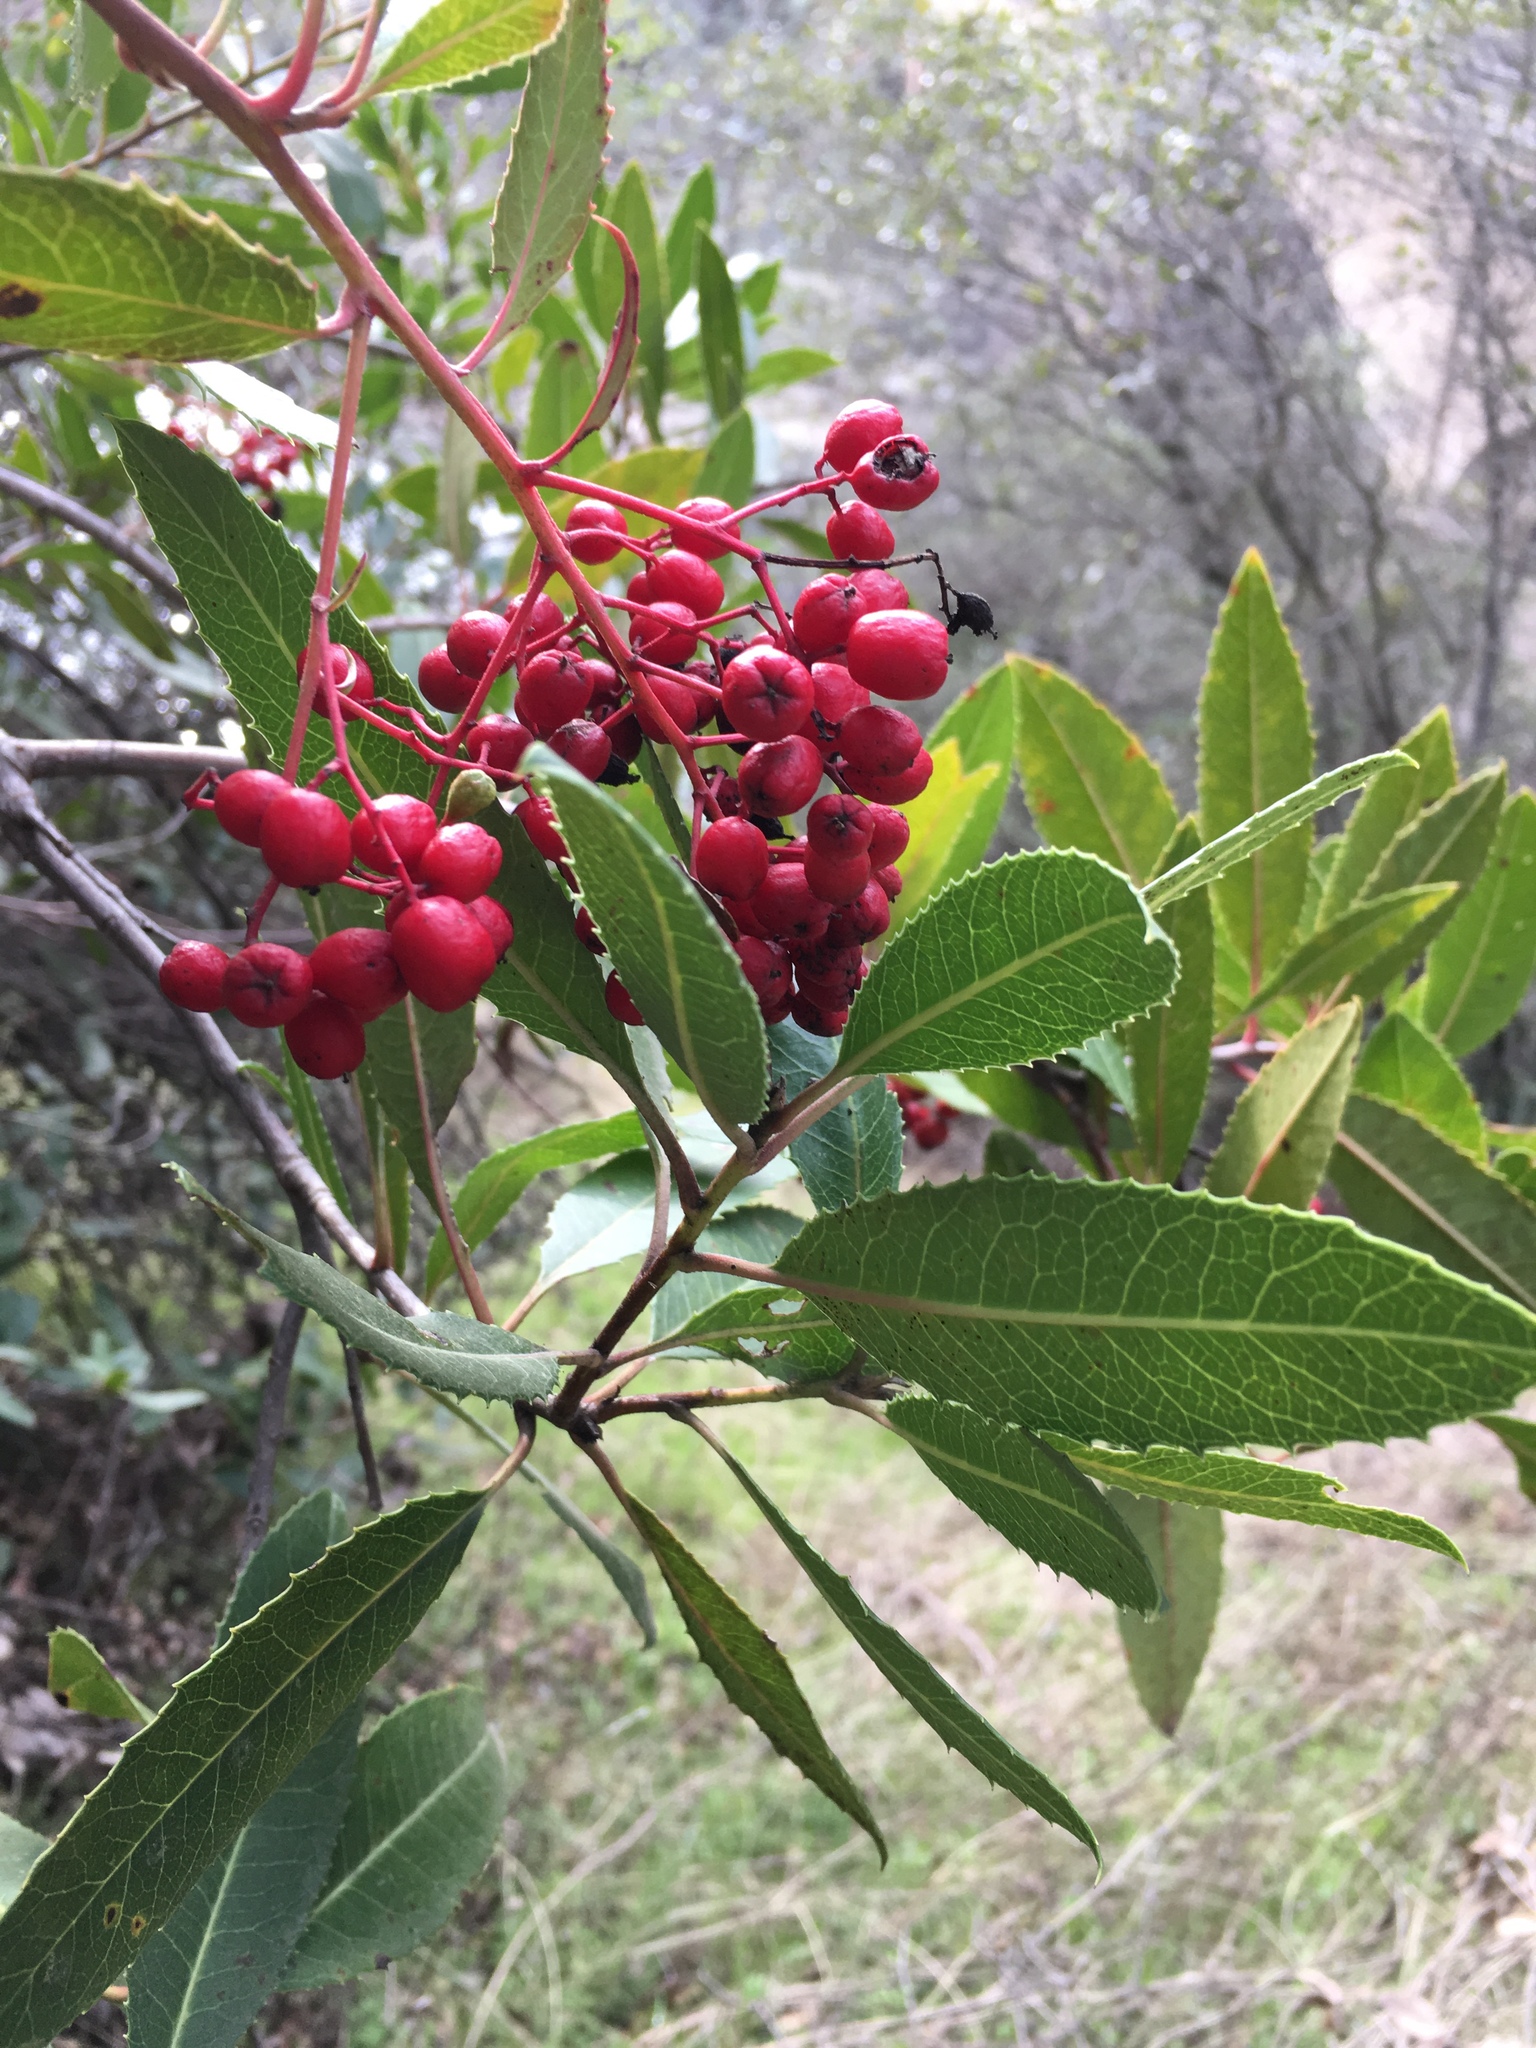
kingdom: Plantae
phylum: Tracheophyta
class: Magnoliopsida
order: Rosales
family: Rosaceae
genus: Heteromeles
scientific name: Heteromeles arbutifolia
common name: California-holly
